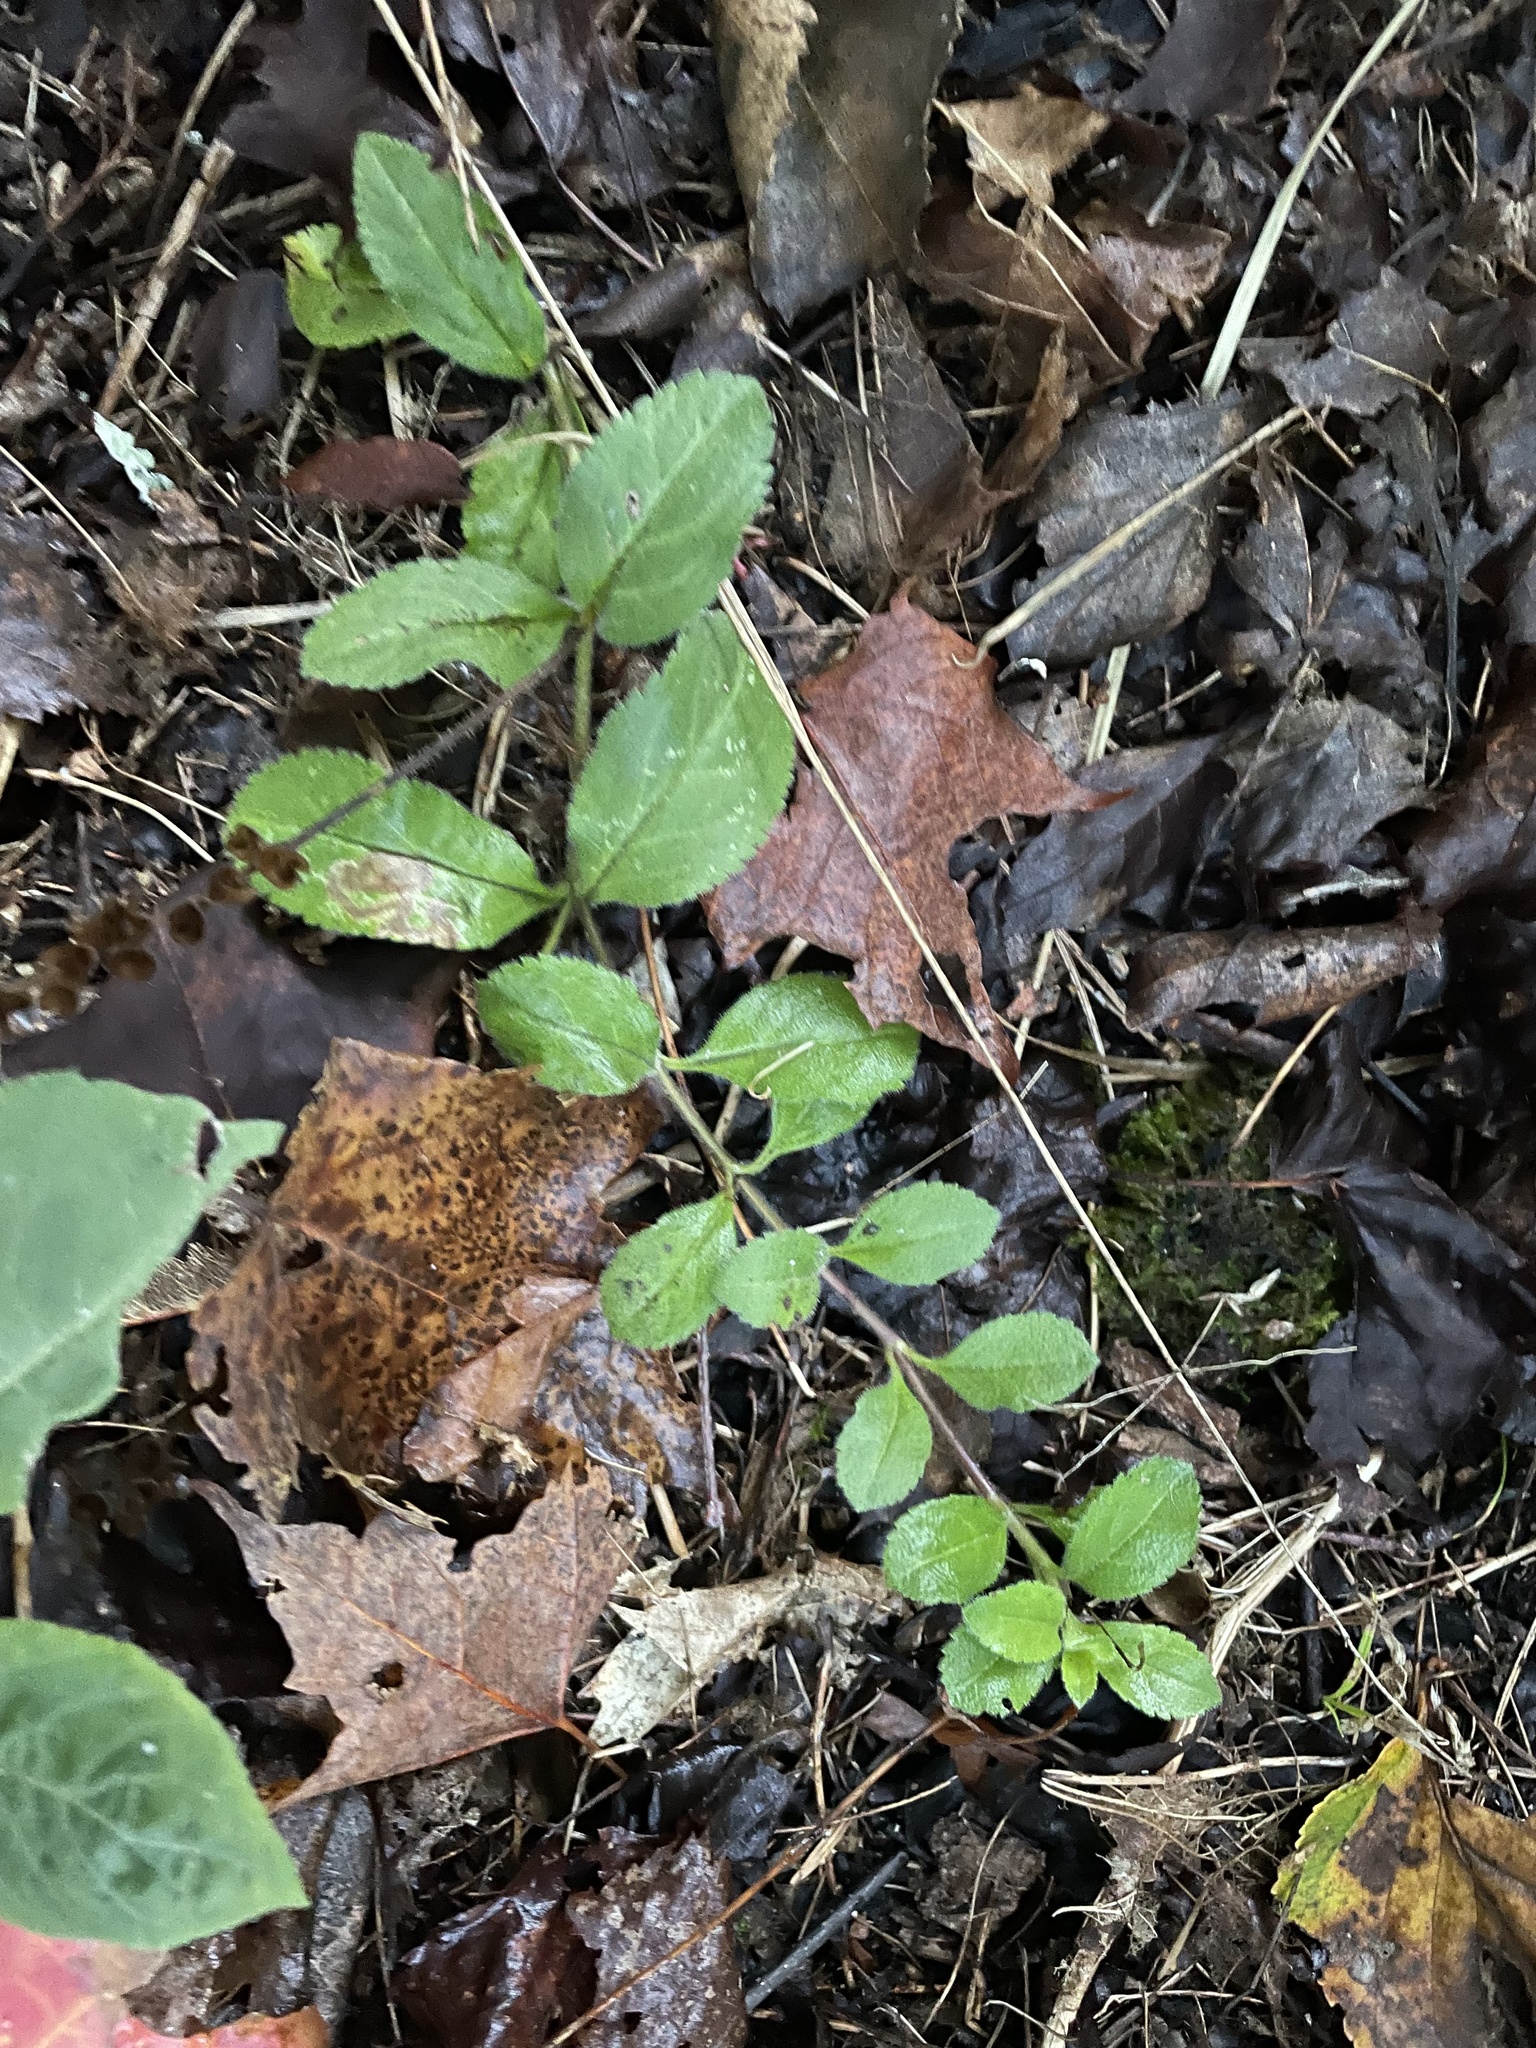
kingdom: Plantae
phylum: Tracheophyta
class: Magnoliopsida
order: Lamiales
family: Plantaginaceae
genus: Veronica
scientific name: Veronica officinalis
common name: Common speedwell
